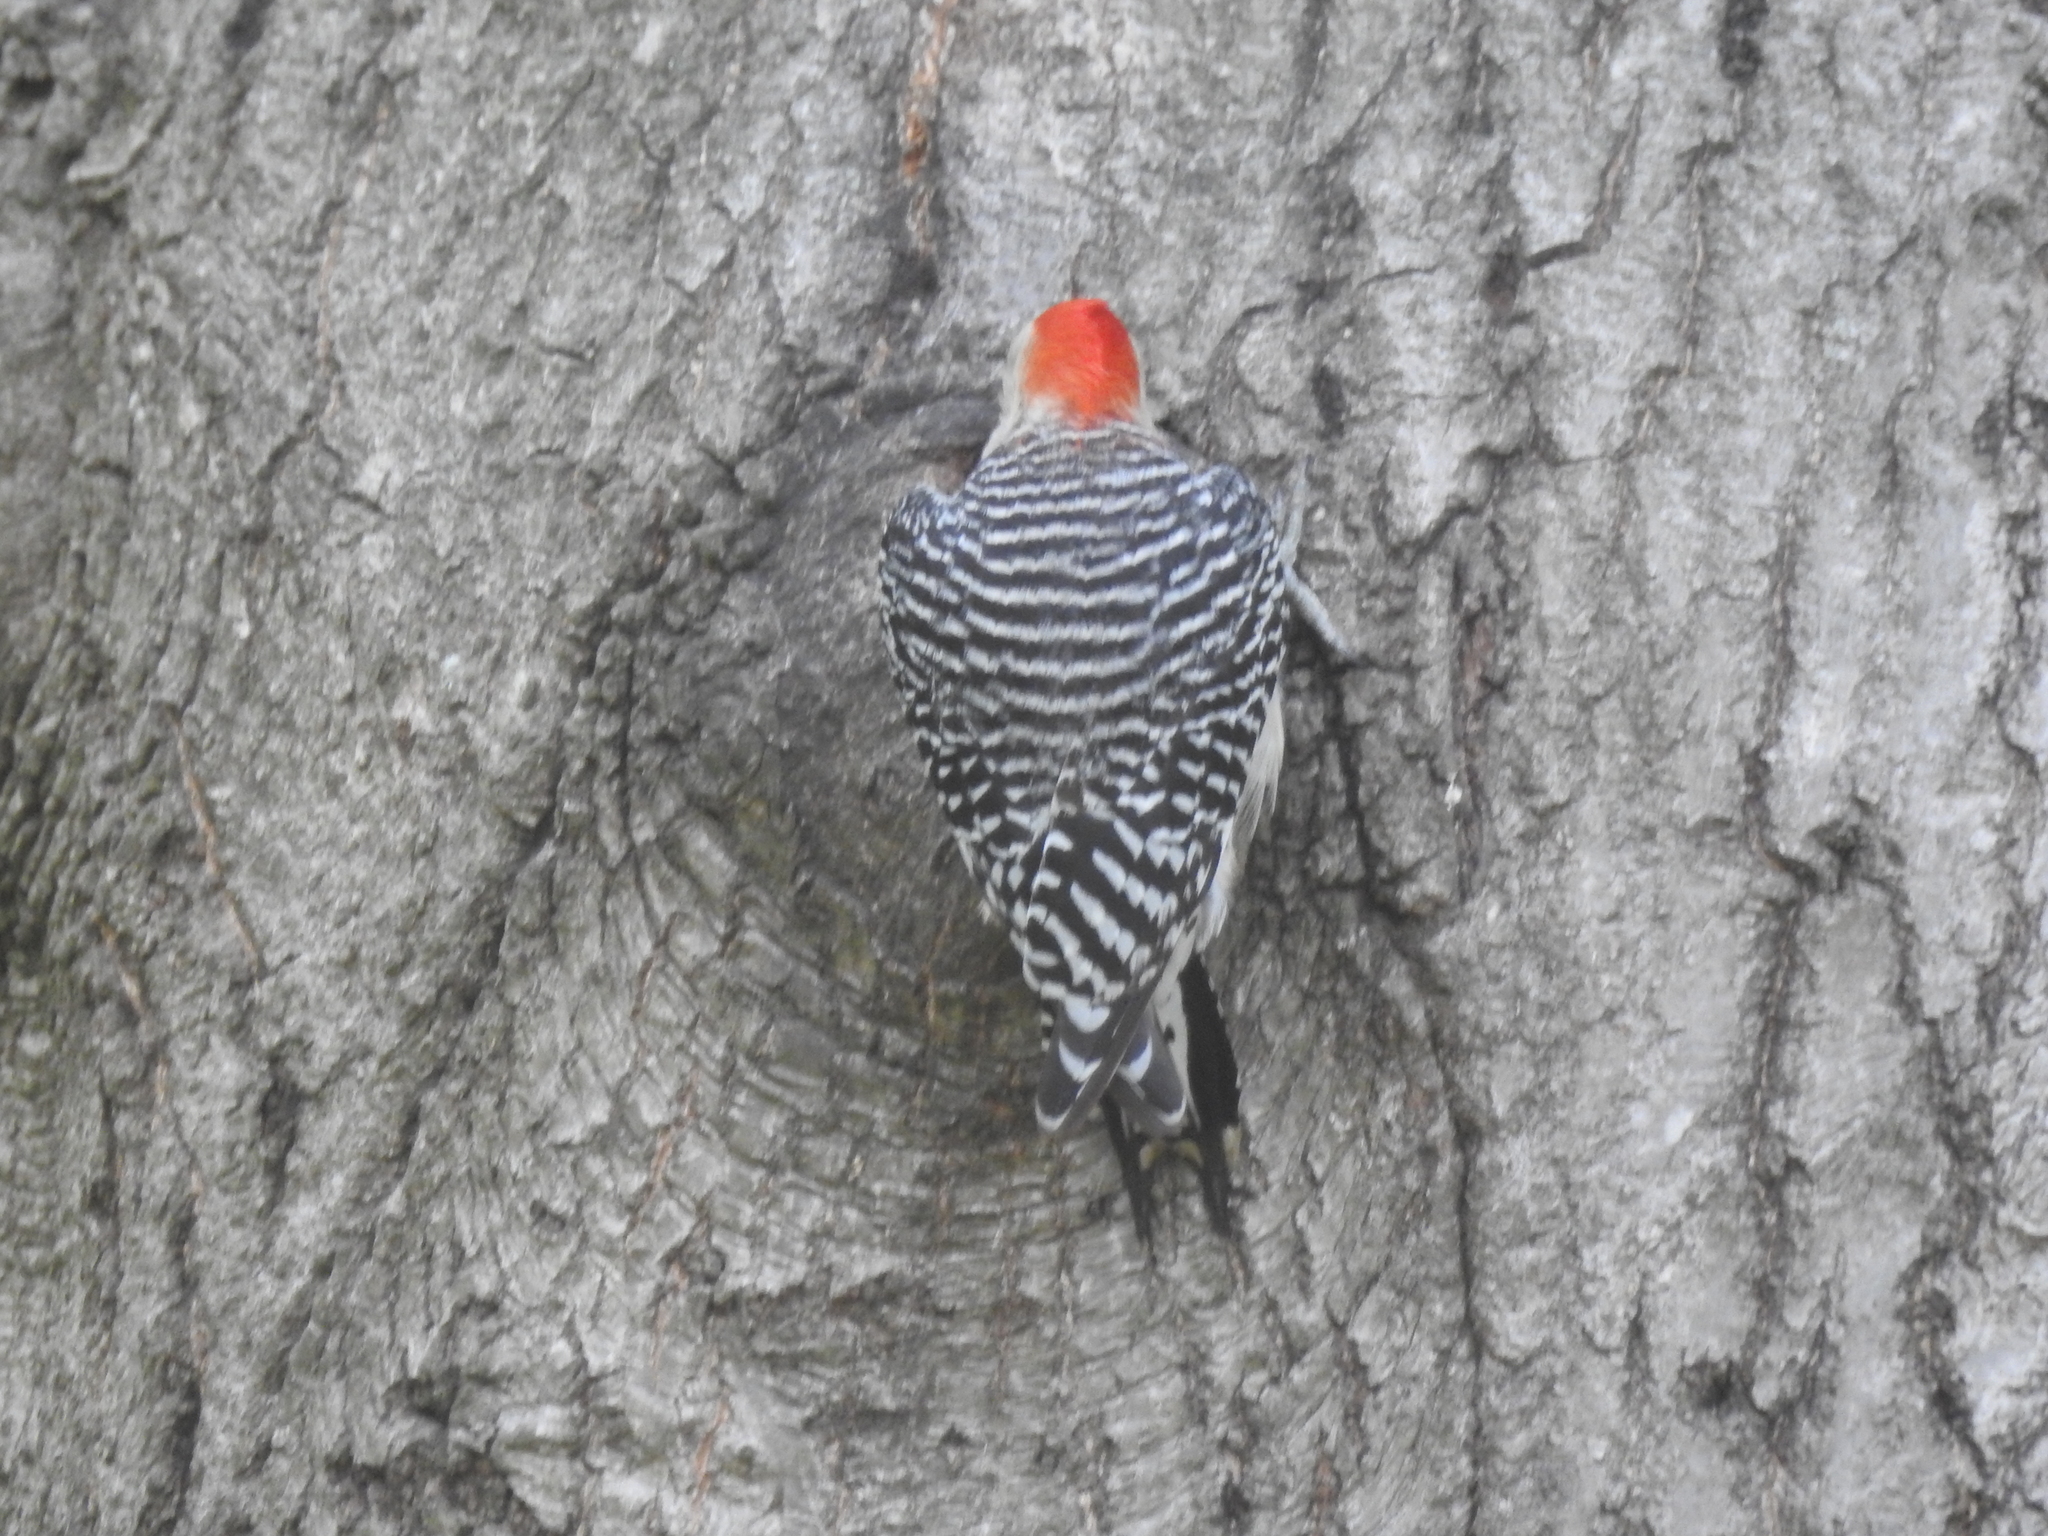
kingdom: Animalia
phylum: Chordata
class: Aves
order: Piciformes
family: Picidae
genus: Melanerpes
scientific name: Melanerpes carolinus
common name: Red-bellied woodpecker
